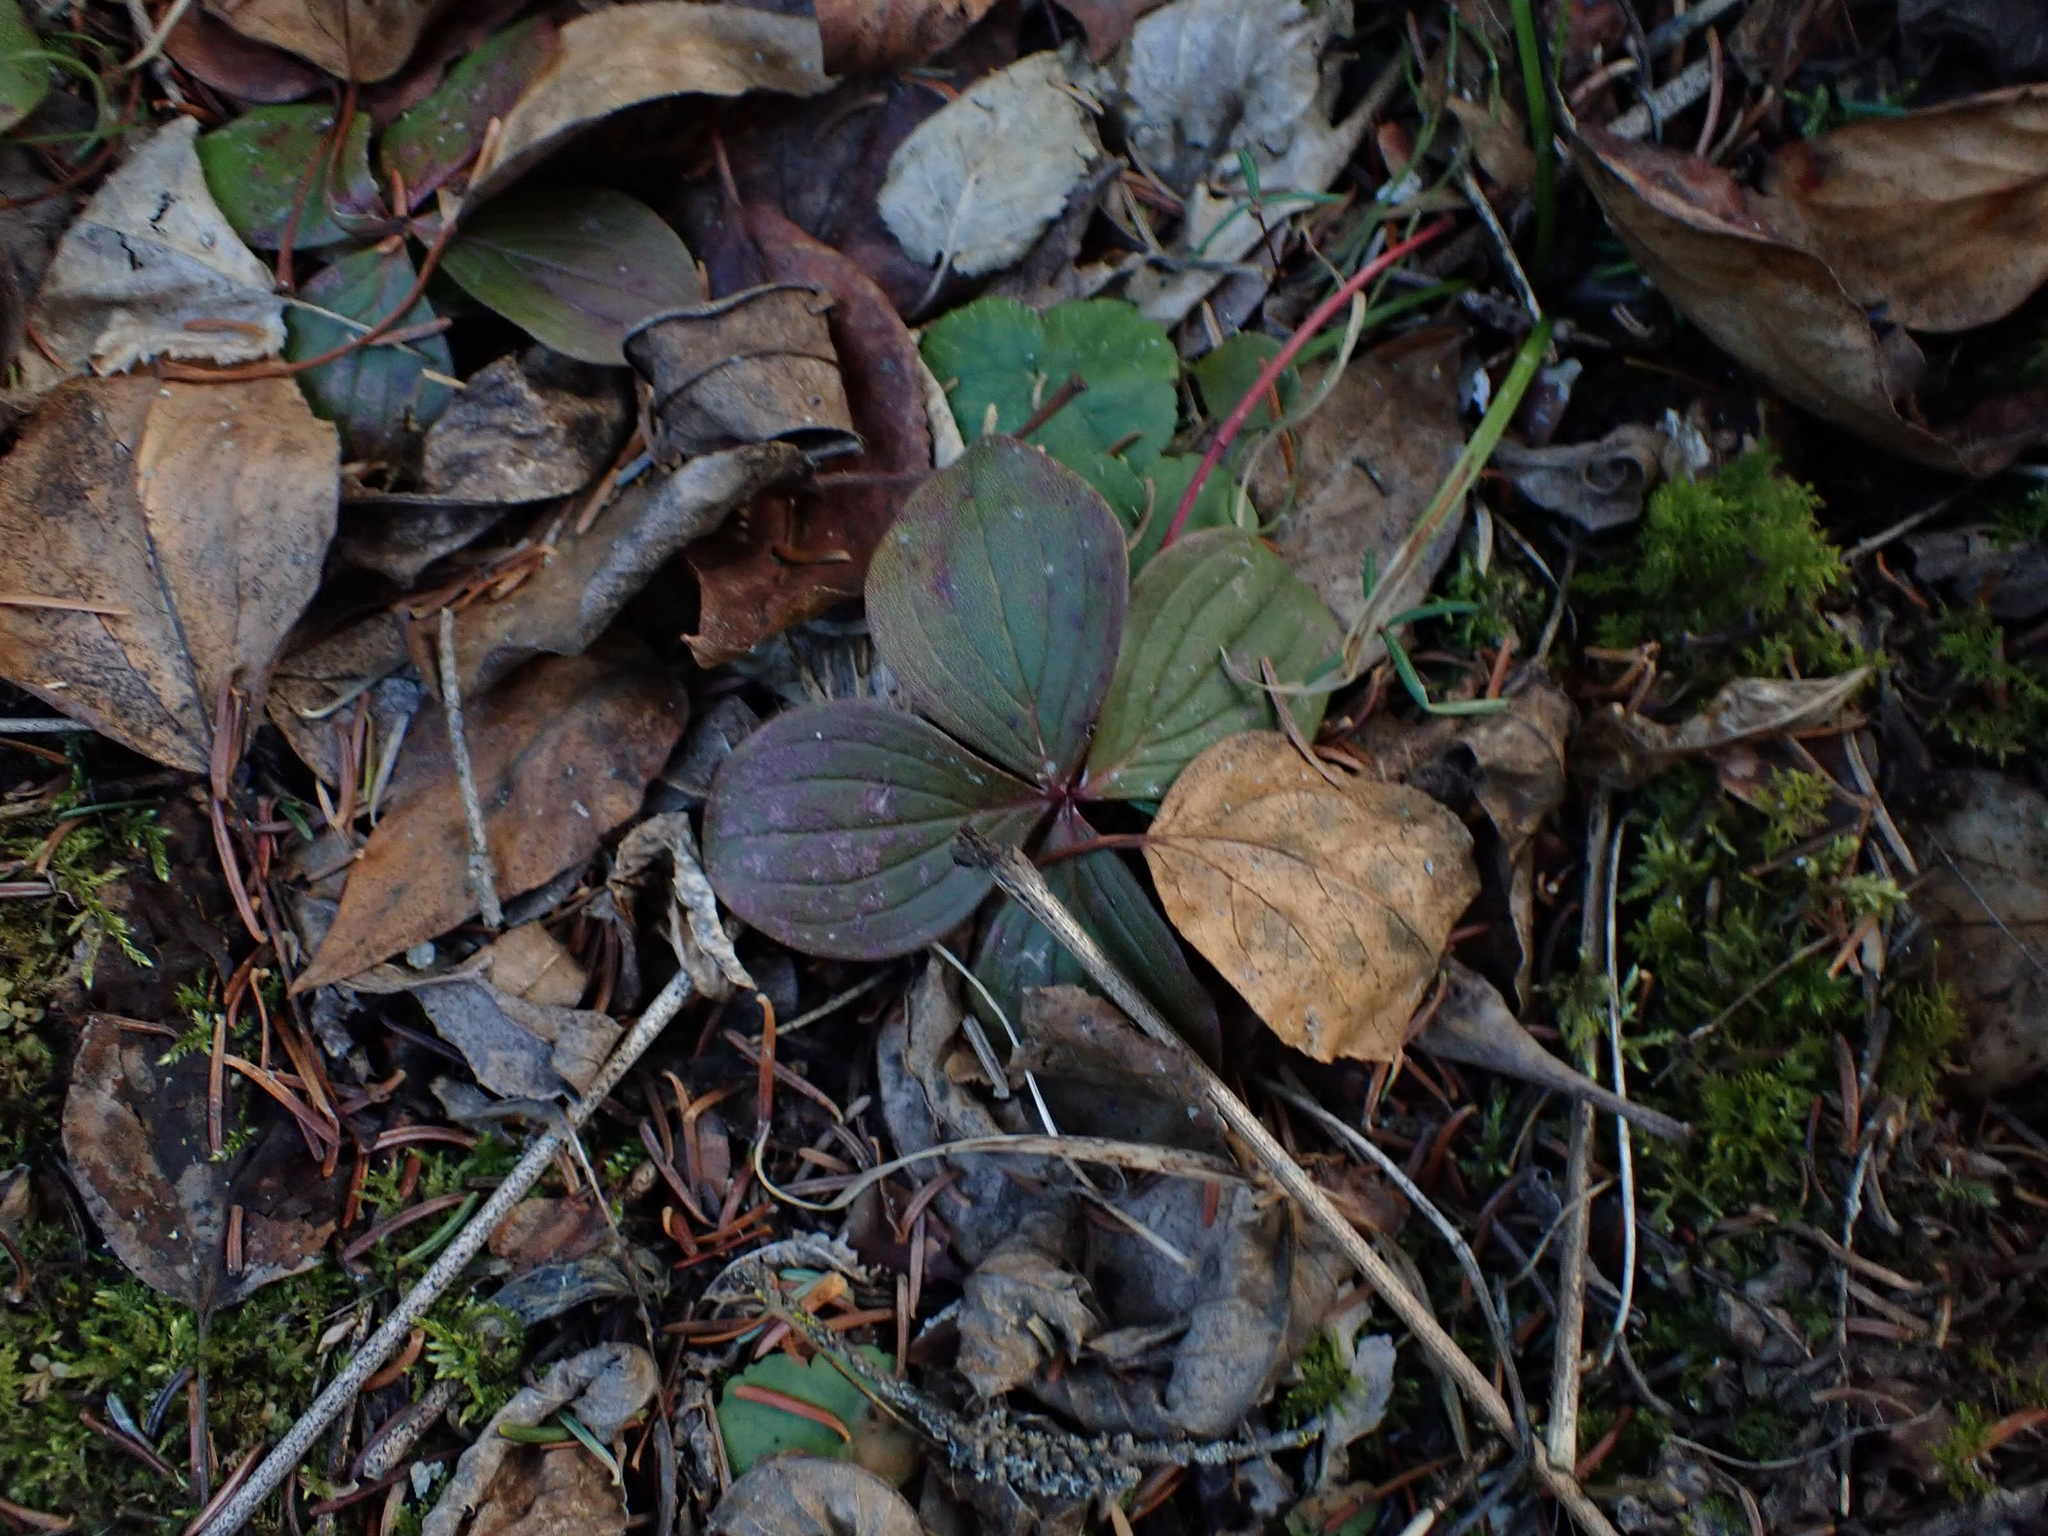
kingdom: Plantae
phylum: Tracheophyta
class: Magnoliopsida
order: Cornales
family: Cornaceae
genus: Cornus
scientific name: Cornus canadensis
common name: Creeping dogwood
